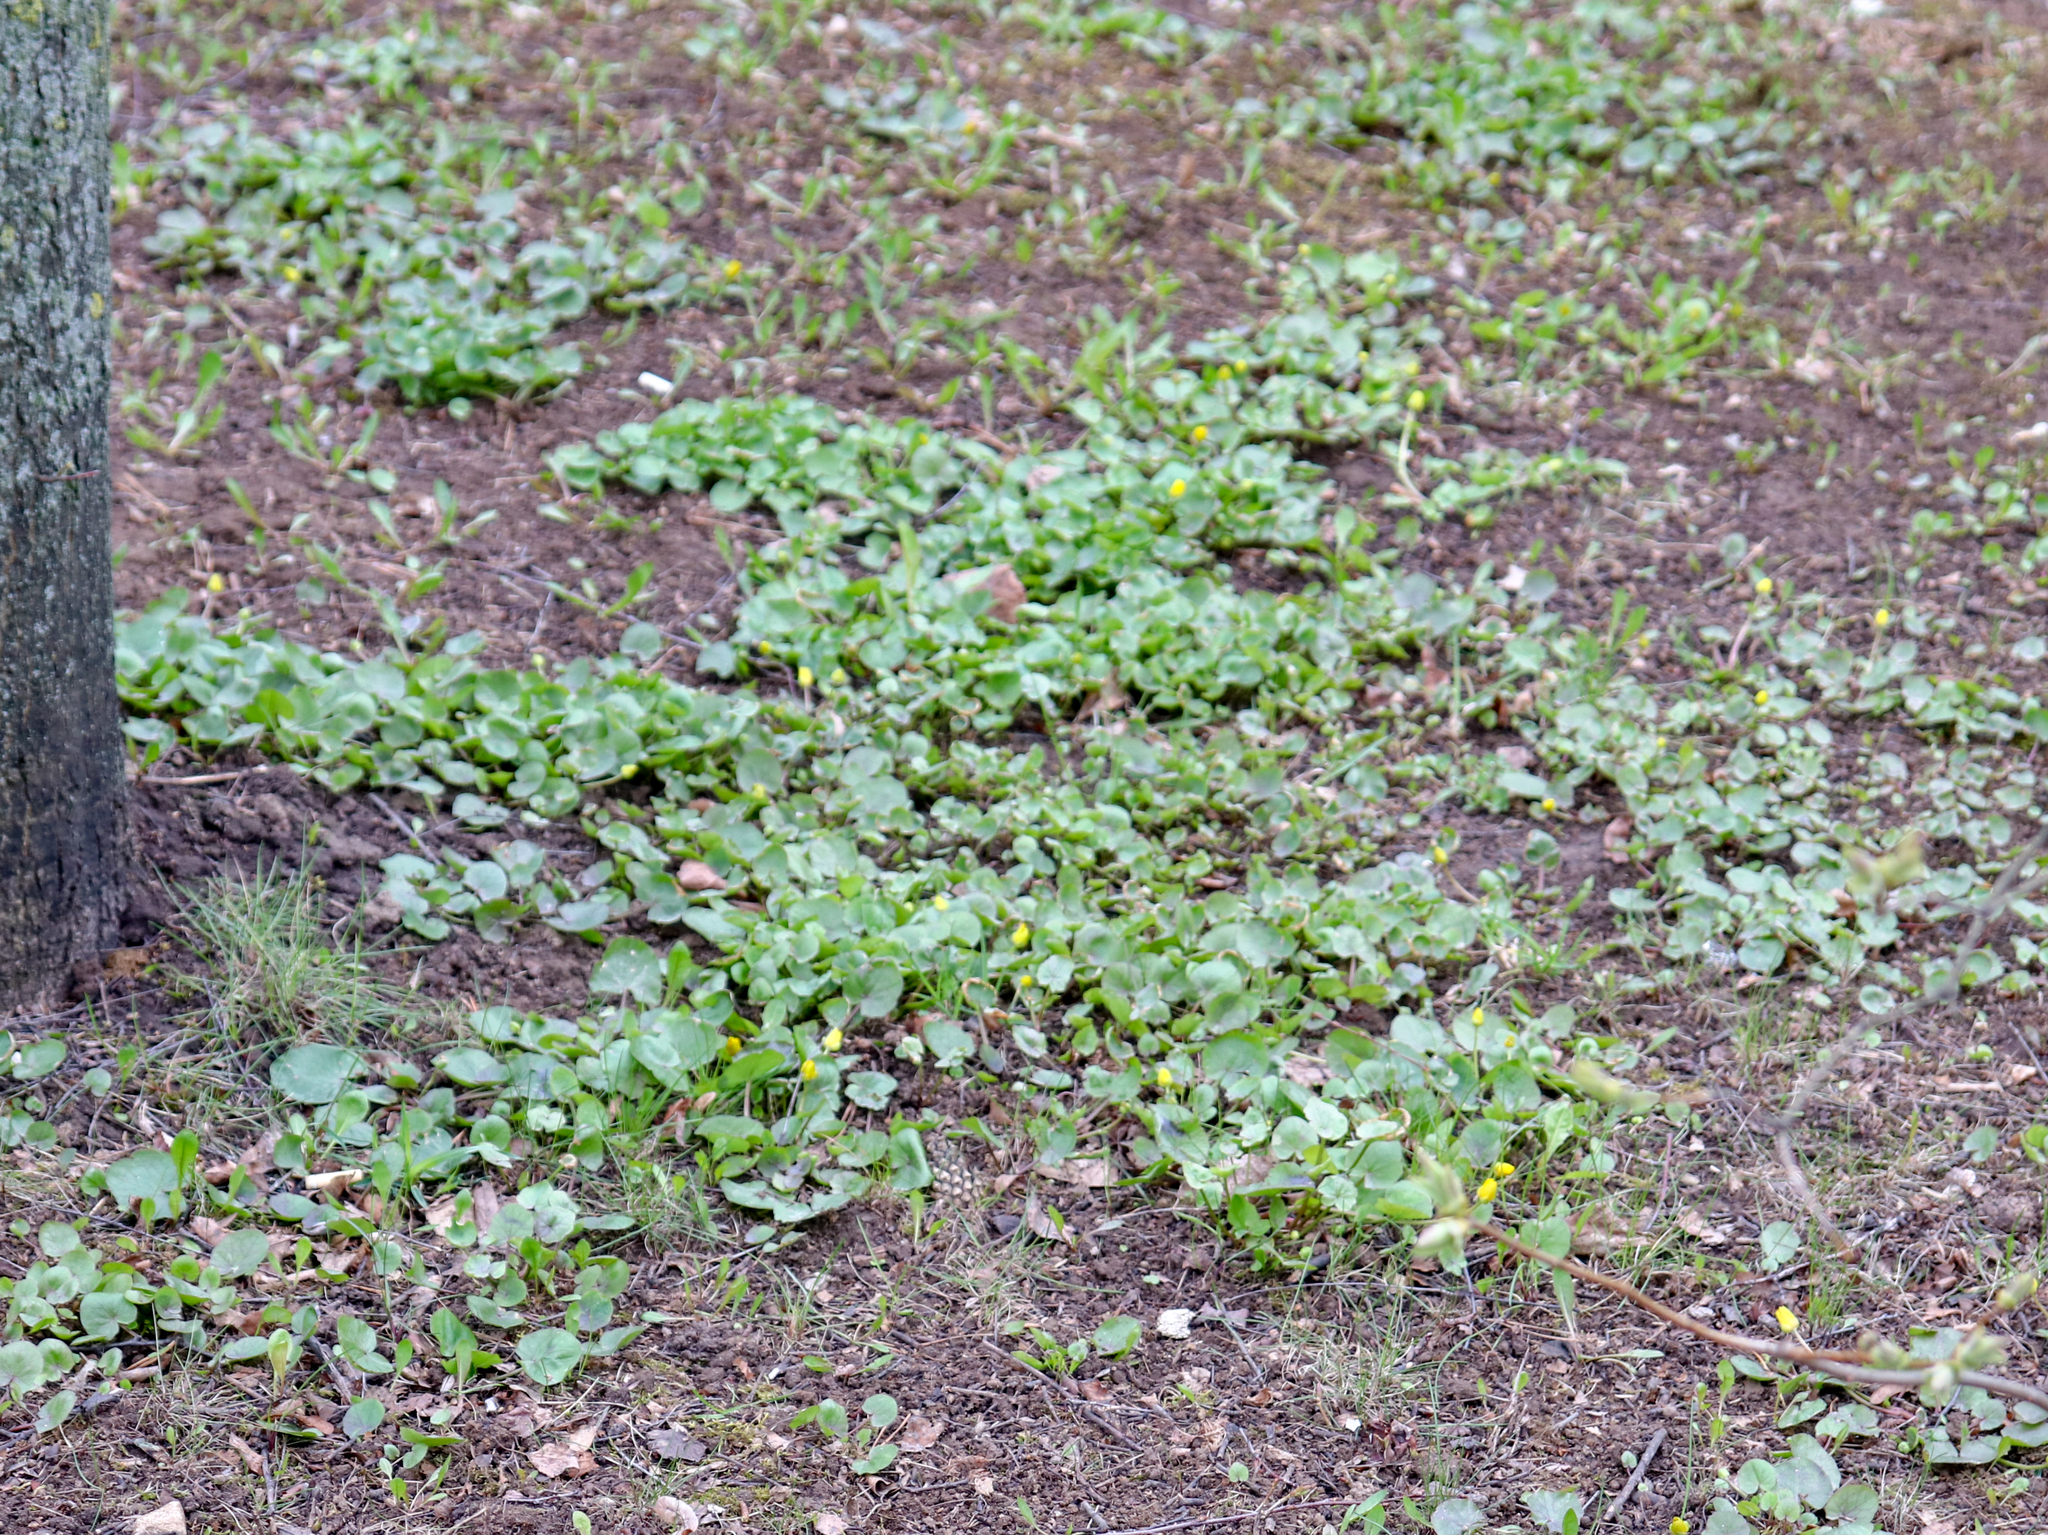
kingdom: Plantae
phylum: Tracheophyta
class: Magnoliopsida
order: Ranunculales
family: Ranunculaceae
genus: Ficaria
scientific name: Ficaria verna
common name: Lesser celandine
